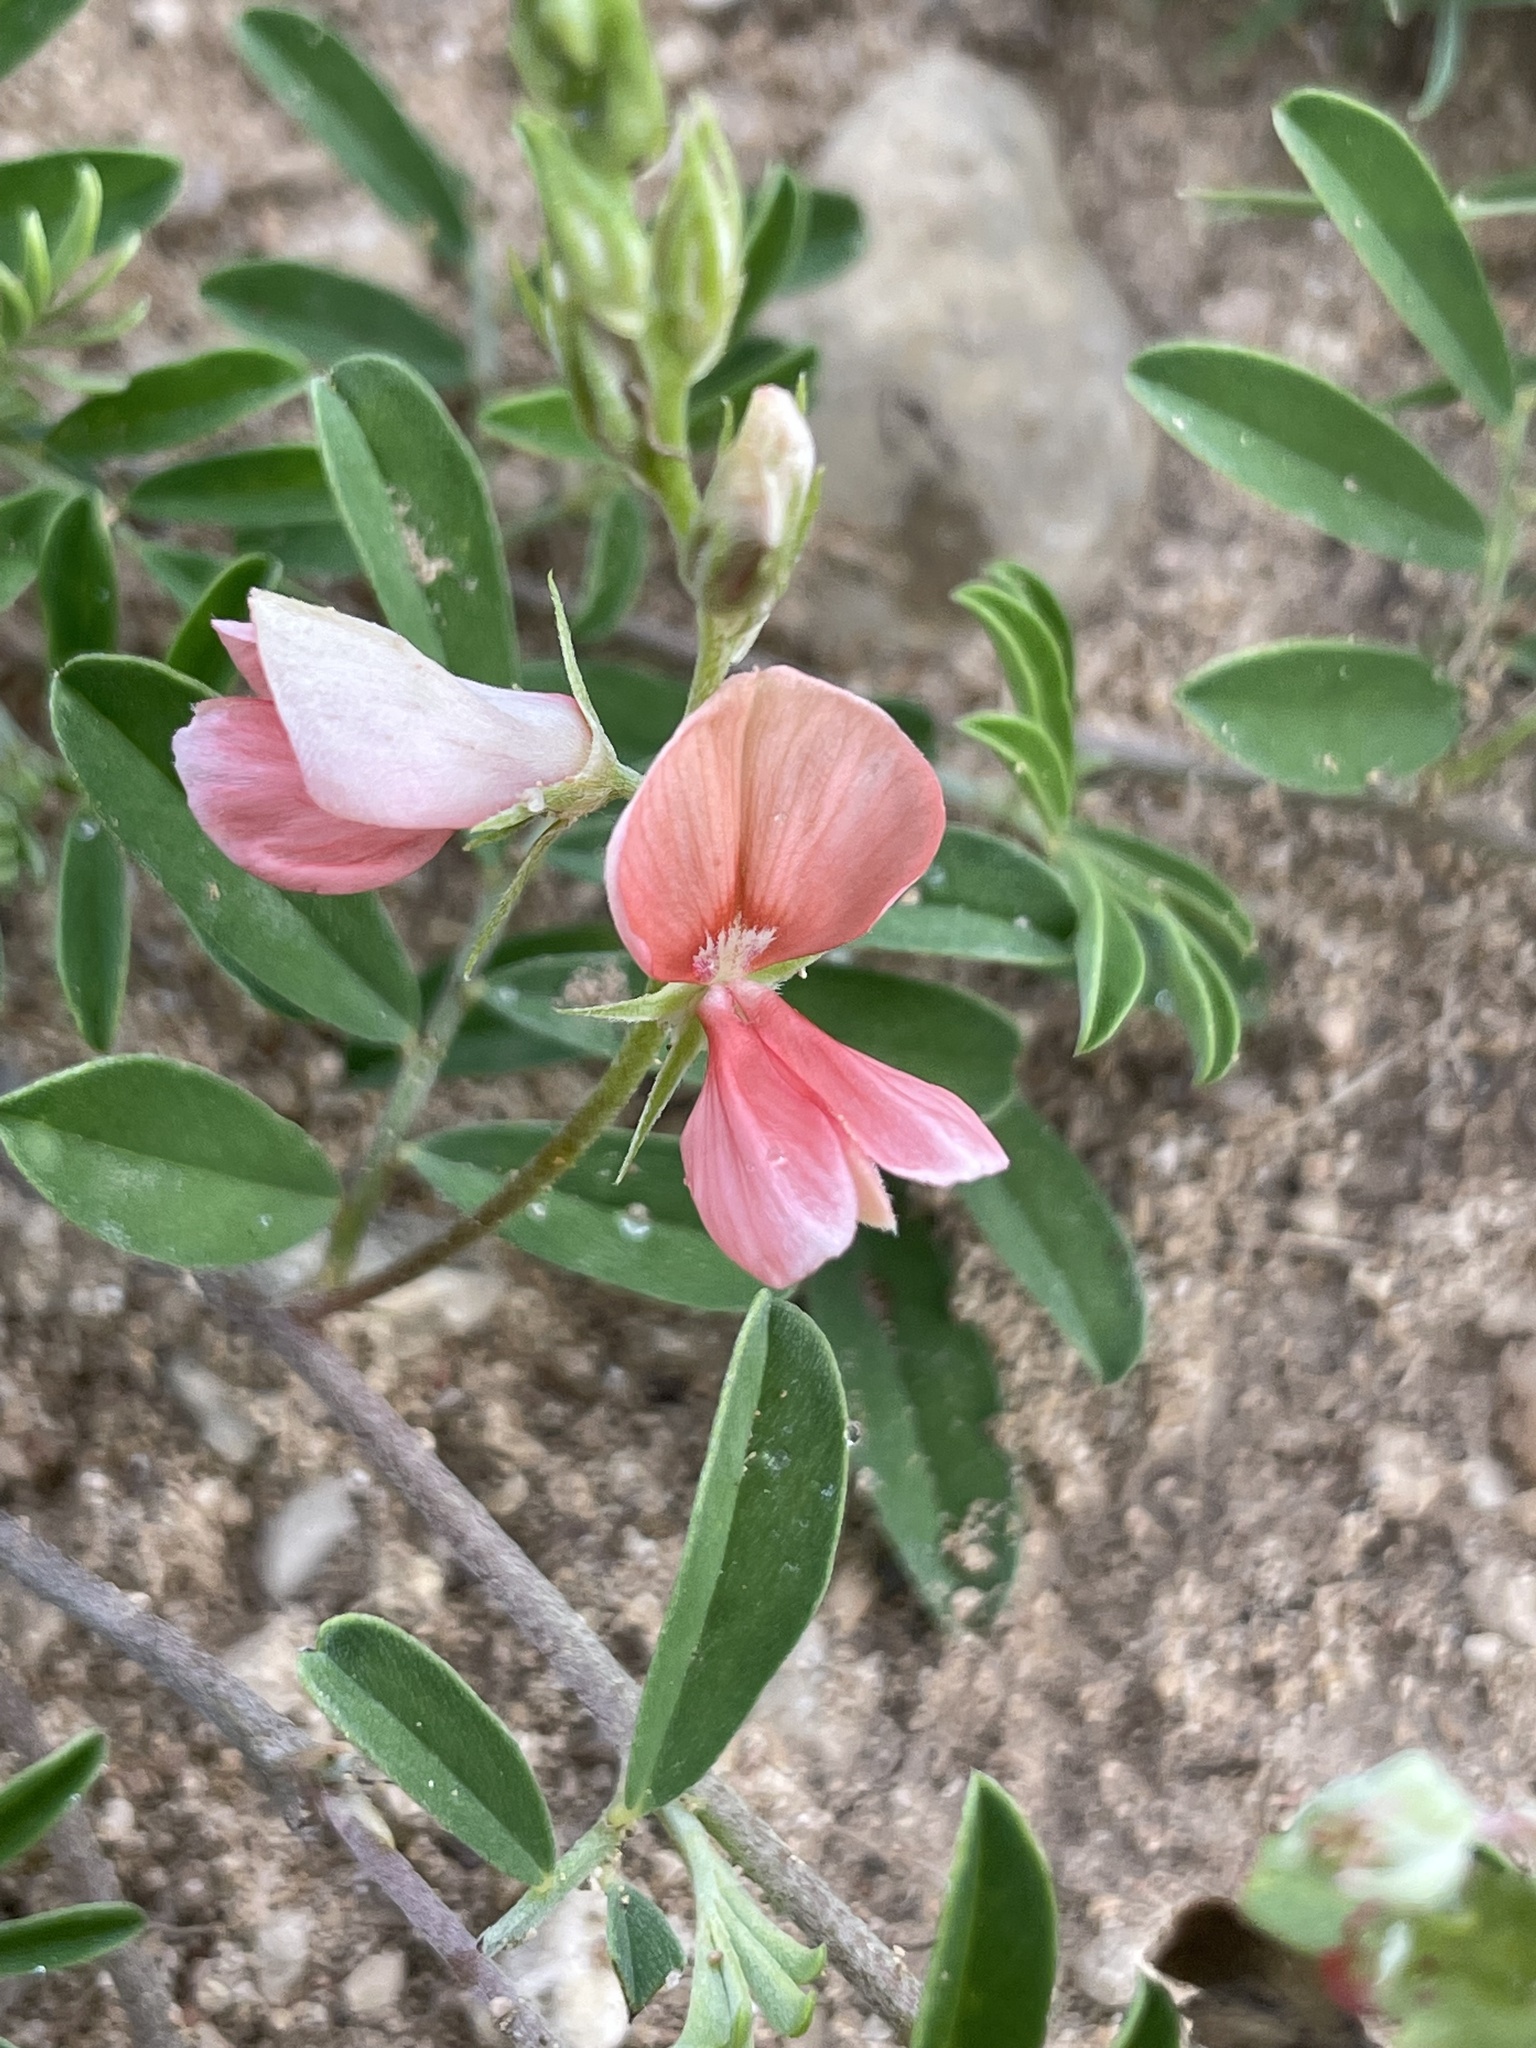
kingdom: Plantae
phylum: Tracheophyta
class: Magnoliopsida
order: Fabales
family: Fabaceae
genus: Indigofera
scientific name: Indigofera miniata
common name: Coast indigo
